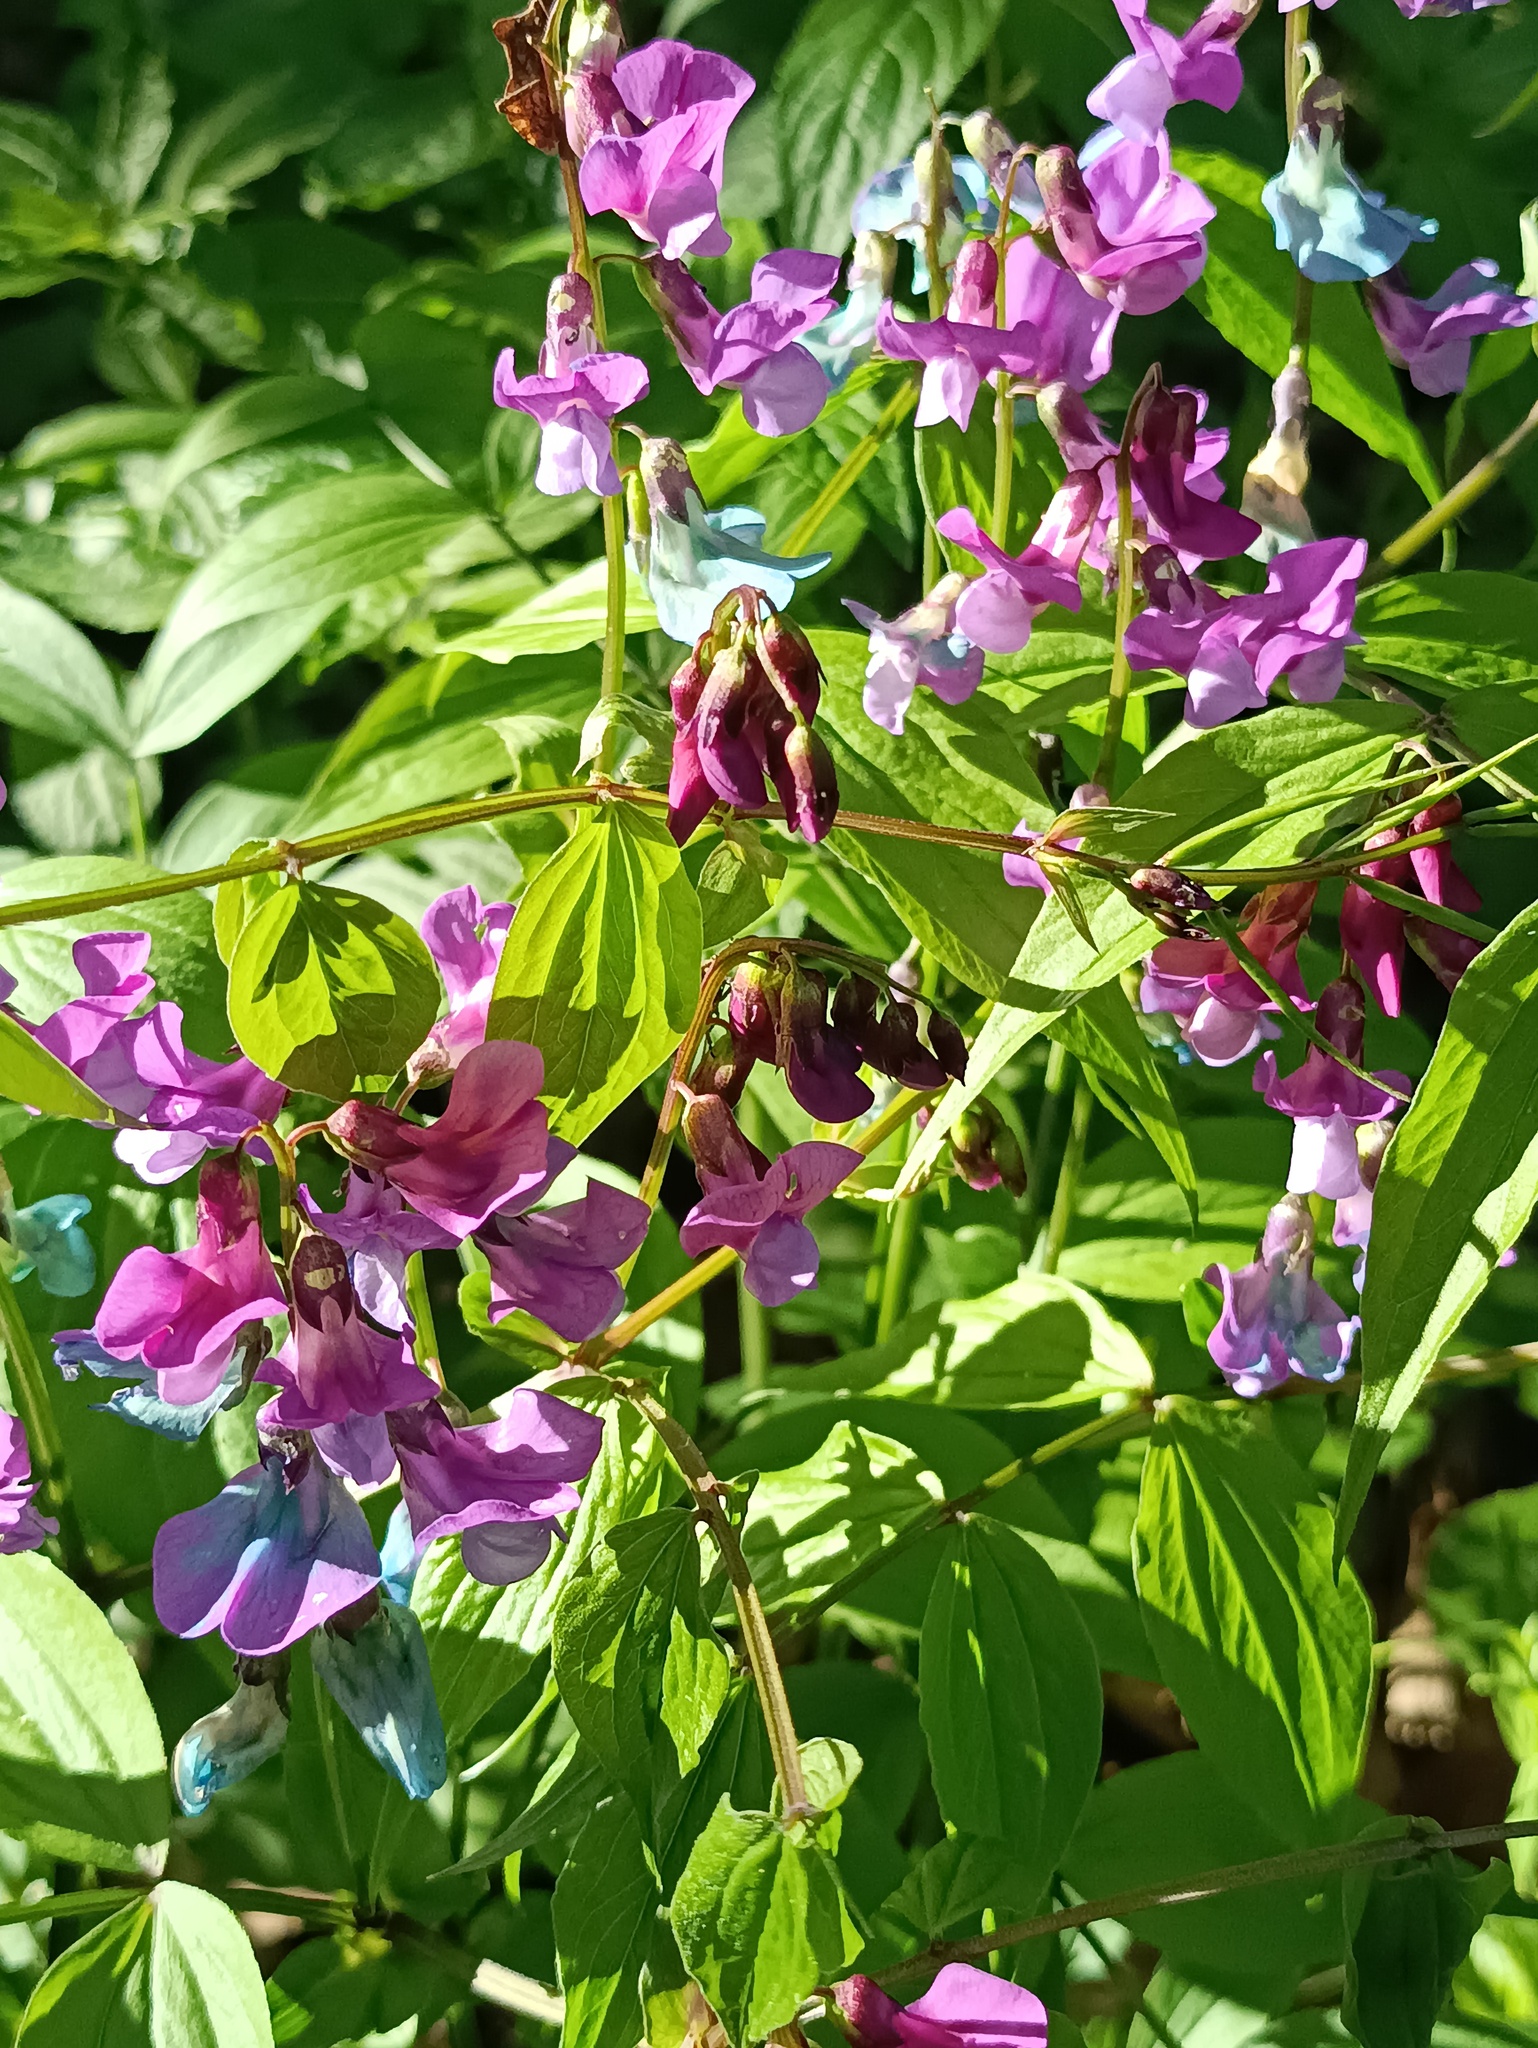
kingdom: Plantae
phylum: Tracheophyta
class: Magnoliopsida
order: Fabales
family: Fabaceae
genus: Lathyrus
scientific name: Lathyrus vernus
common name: Spring pea
